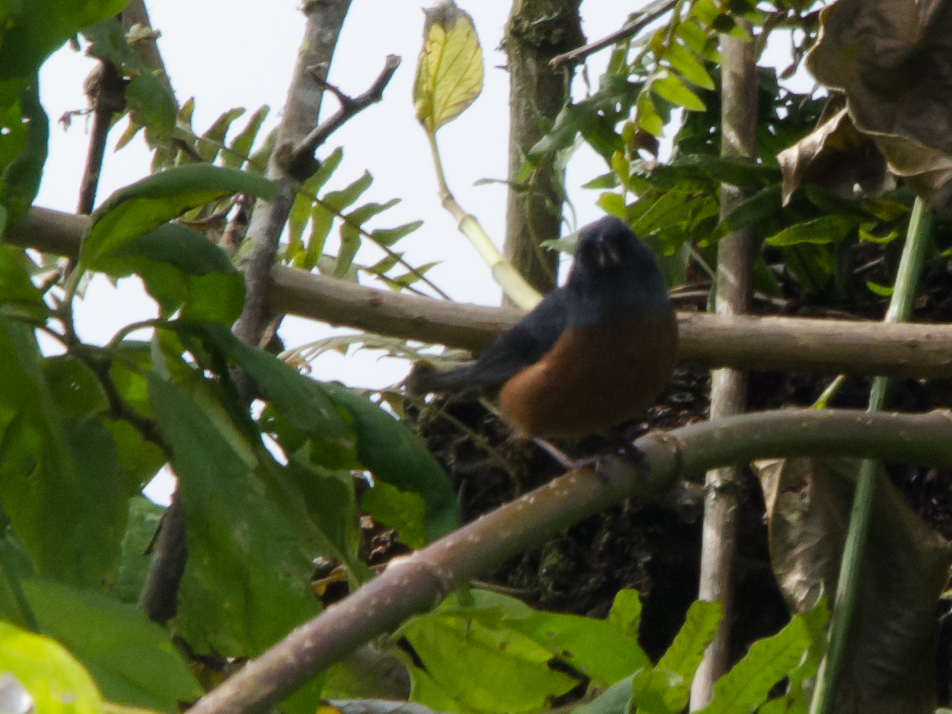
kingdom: Animalia
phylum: Chordata
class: Aves
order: Passeriformes
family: Thraupidae
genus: Diglossa
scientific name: Diglossa baritula
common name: Cinnamon-bellied flowerpiercer
